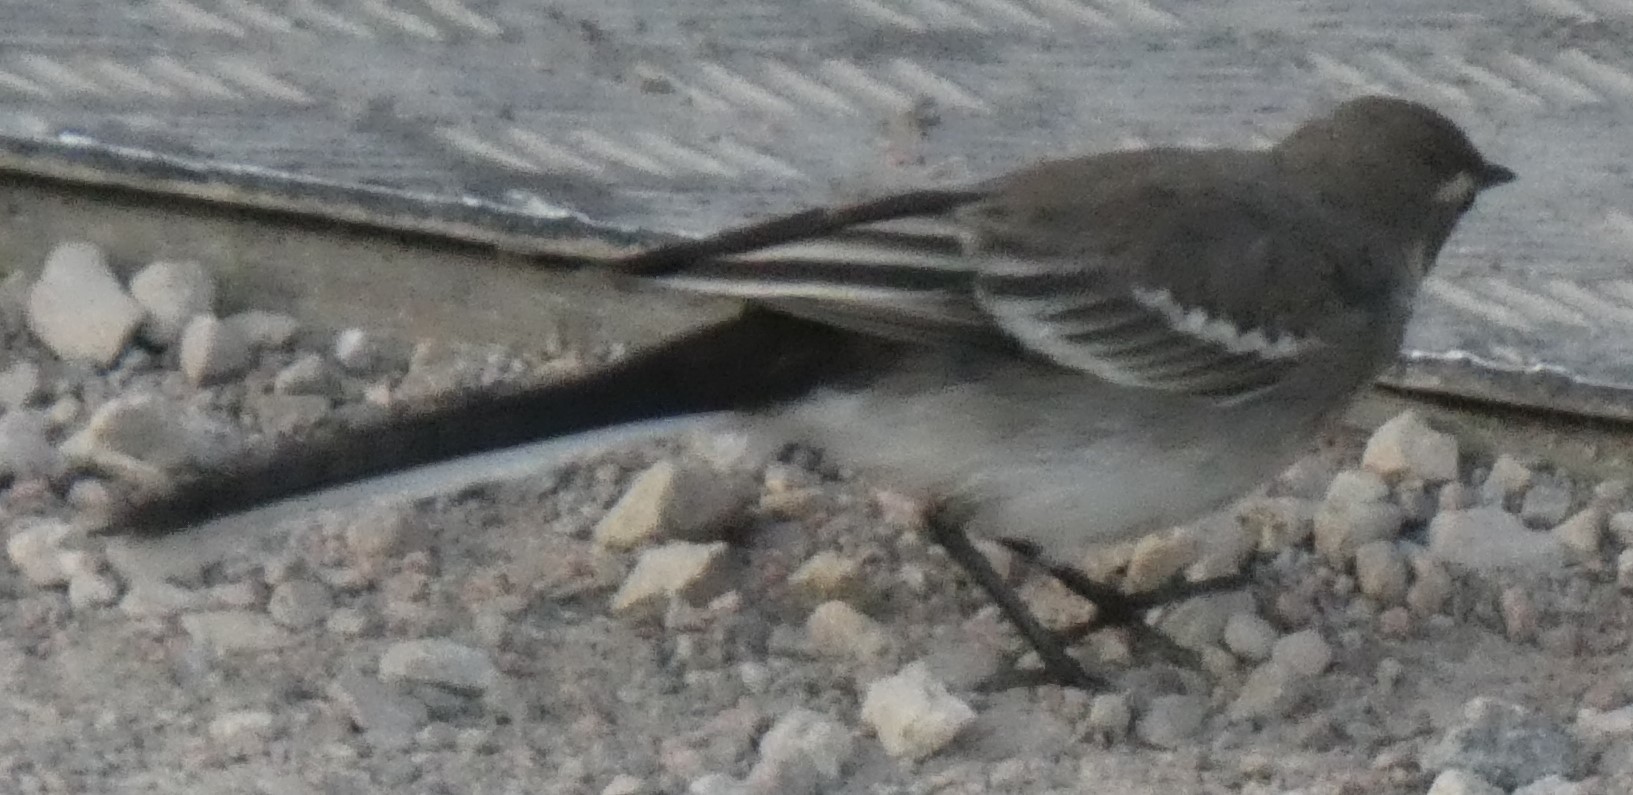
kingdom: Animalia
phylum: Chordata
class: Aves
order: Passeriformes
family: Motacillidae
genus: Motacilla
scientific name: Motacilla alba
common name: White wagtail
